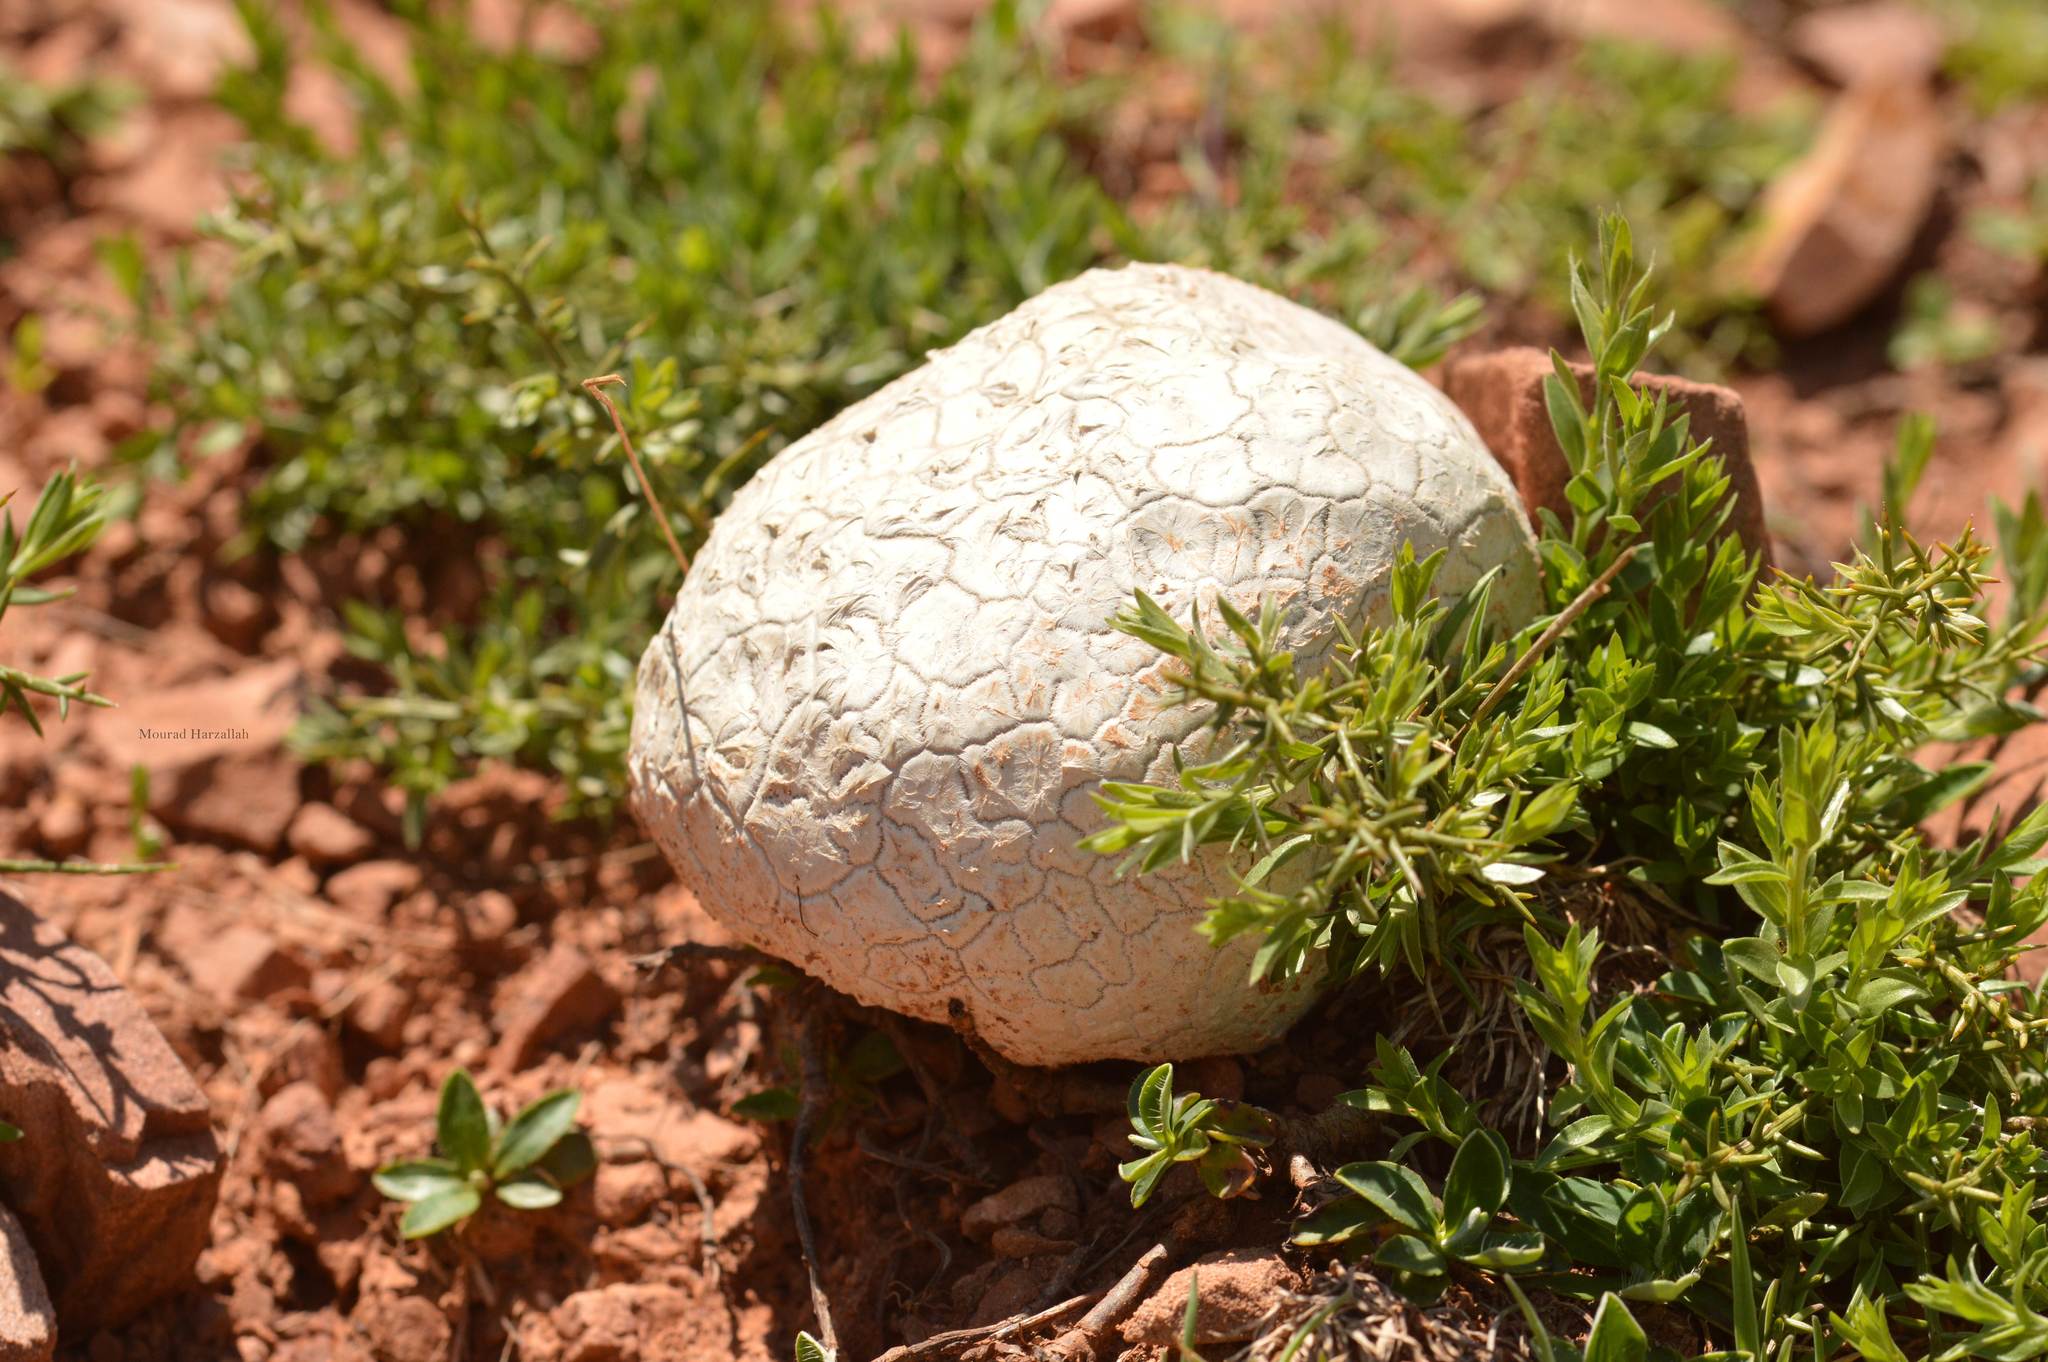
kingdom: Fungi
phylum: Basidiomycota
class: Agaricomycetes
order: Agaricales
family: Lycoperdaceae
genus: Bovistella
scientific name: Bovistella utriformis
